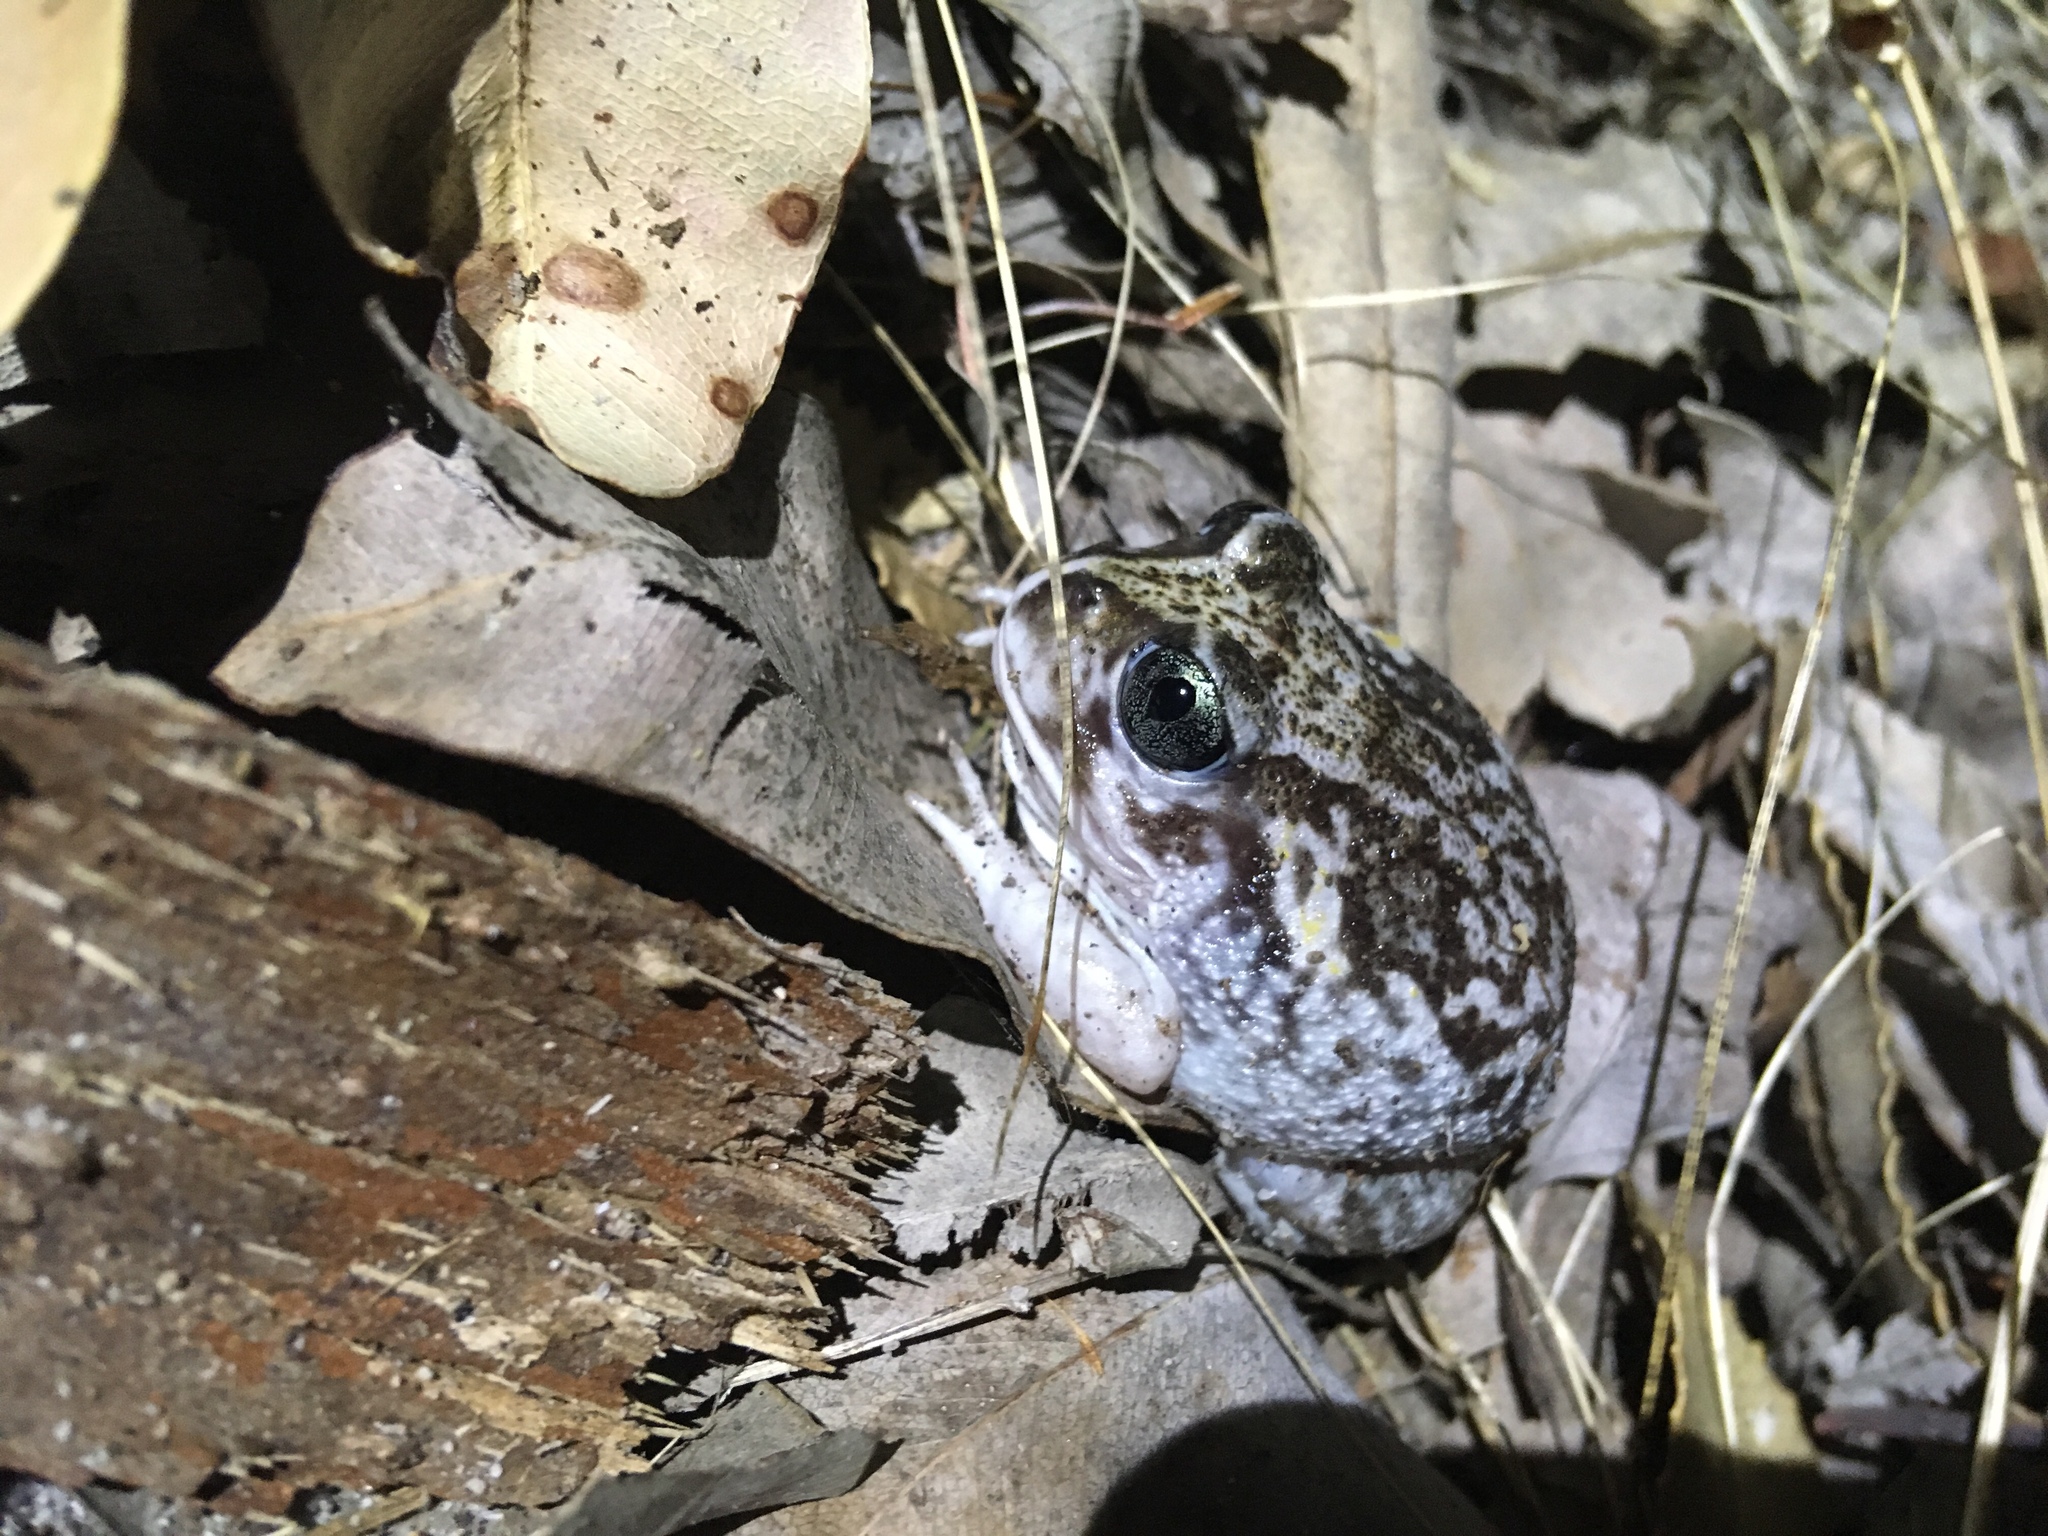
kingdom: Animalia
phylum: Chordata
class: Amphibia
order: Anura
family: Limnodynastidae
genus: Heleioporus
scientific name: Heleioporus eyrei
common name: Moaning frog
